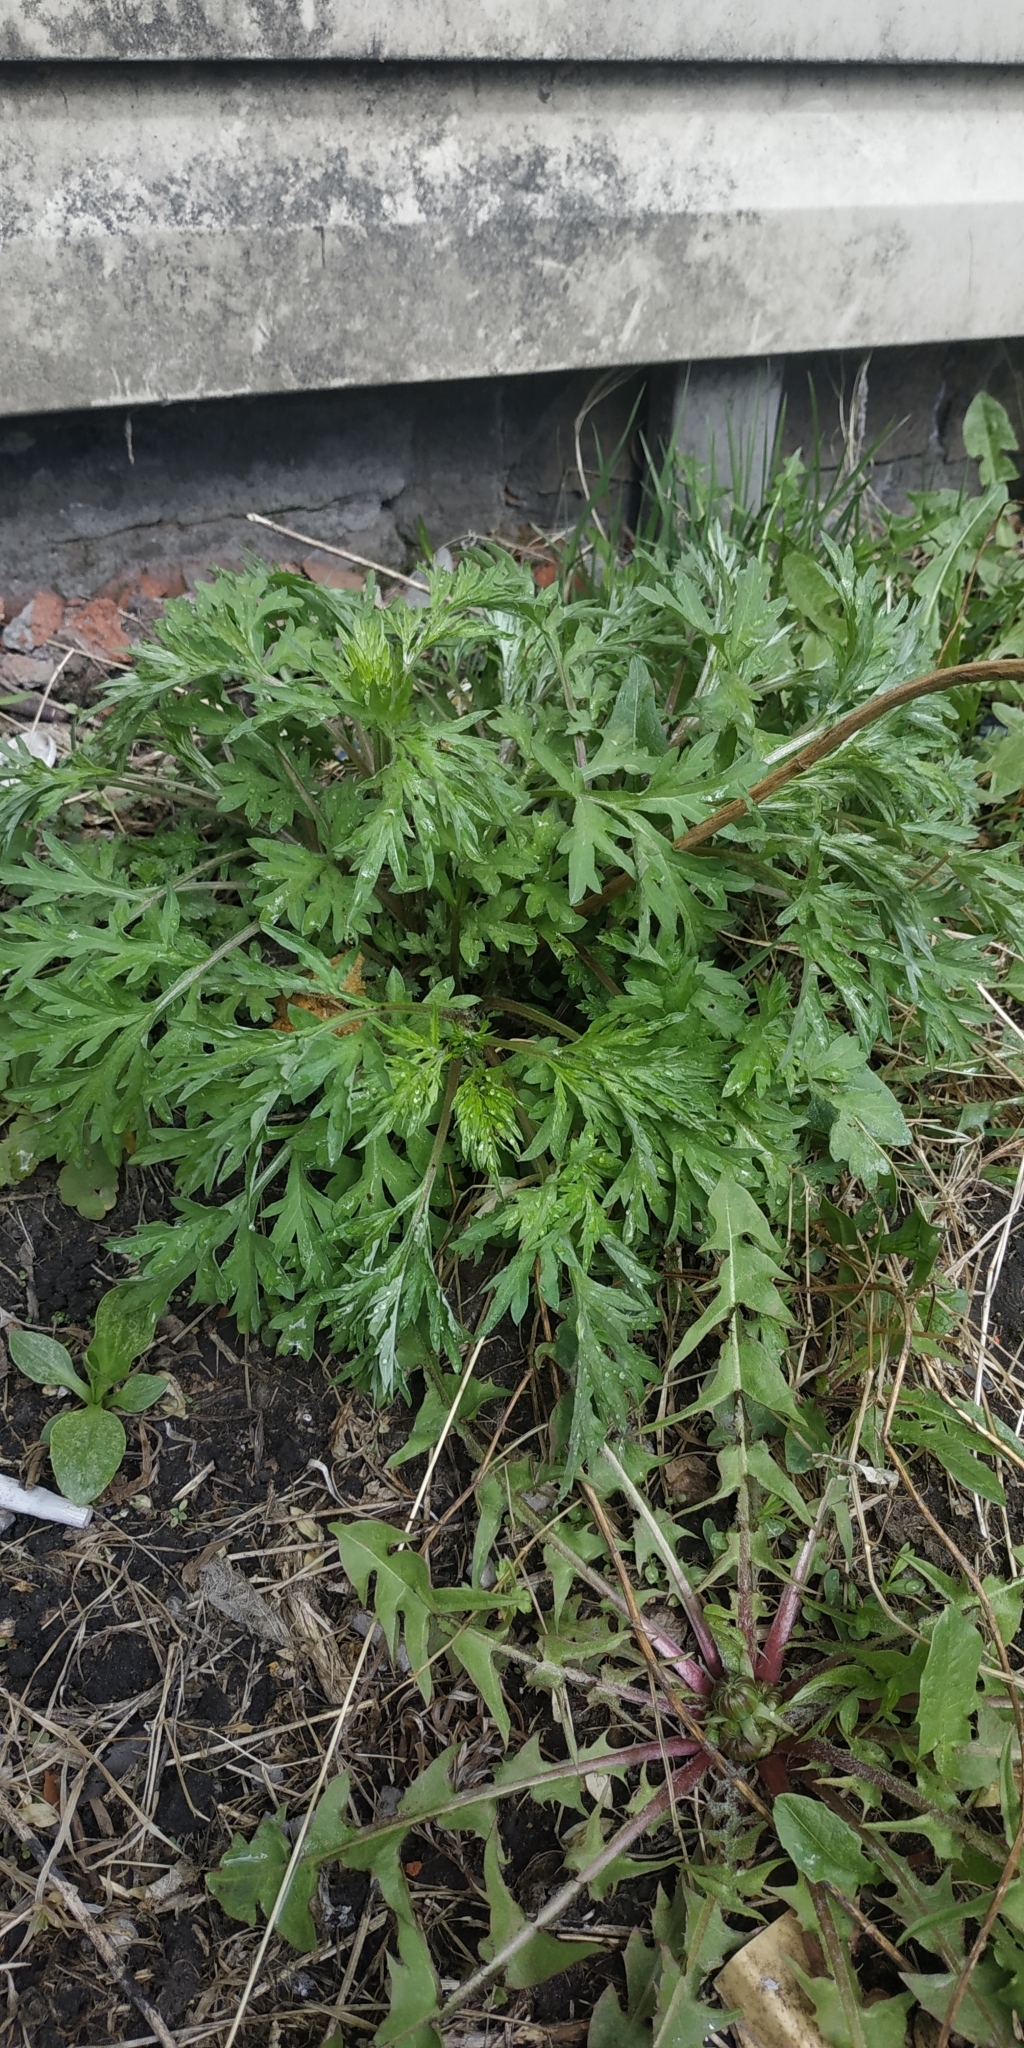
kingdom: Plantae
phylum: Tracheophyta
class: Magnoliopsida
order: Asterales
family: Asteraceae
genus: Artemisia
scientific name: Artemisia vulgaris
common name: Mugwort
